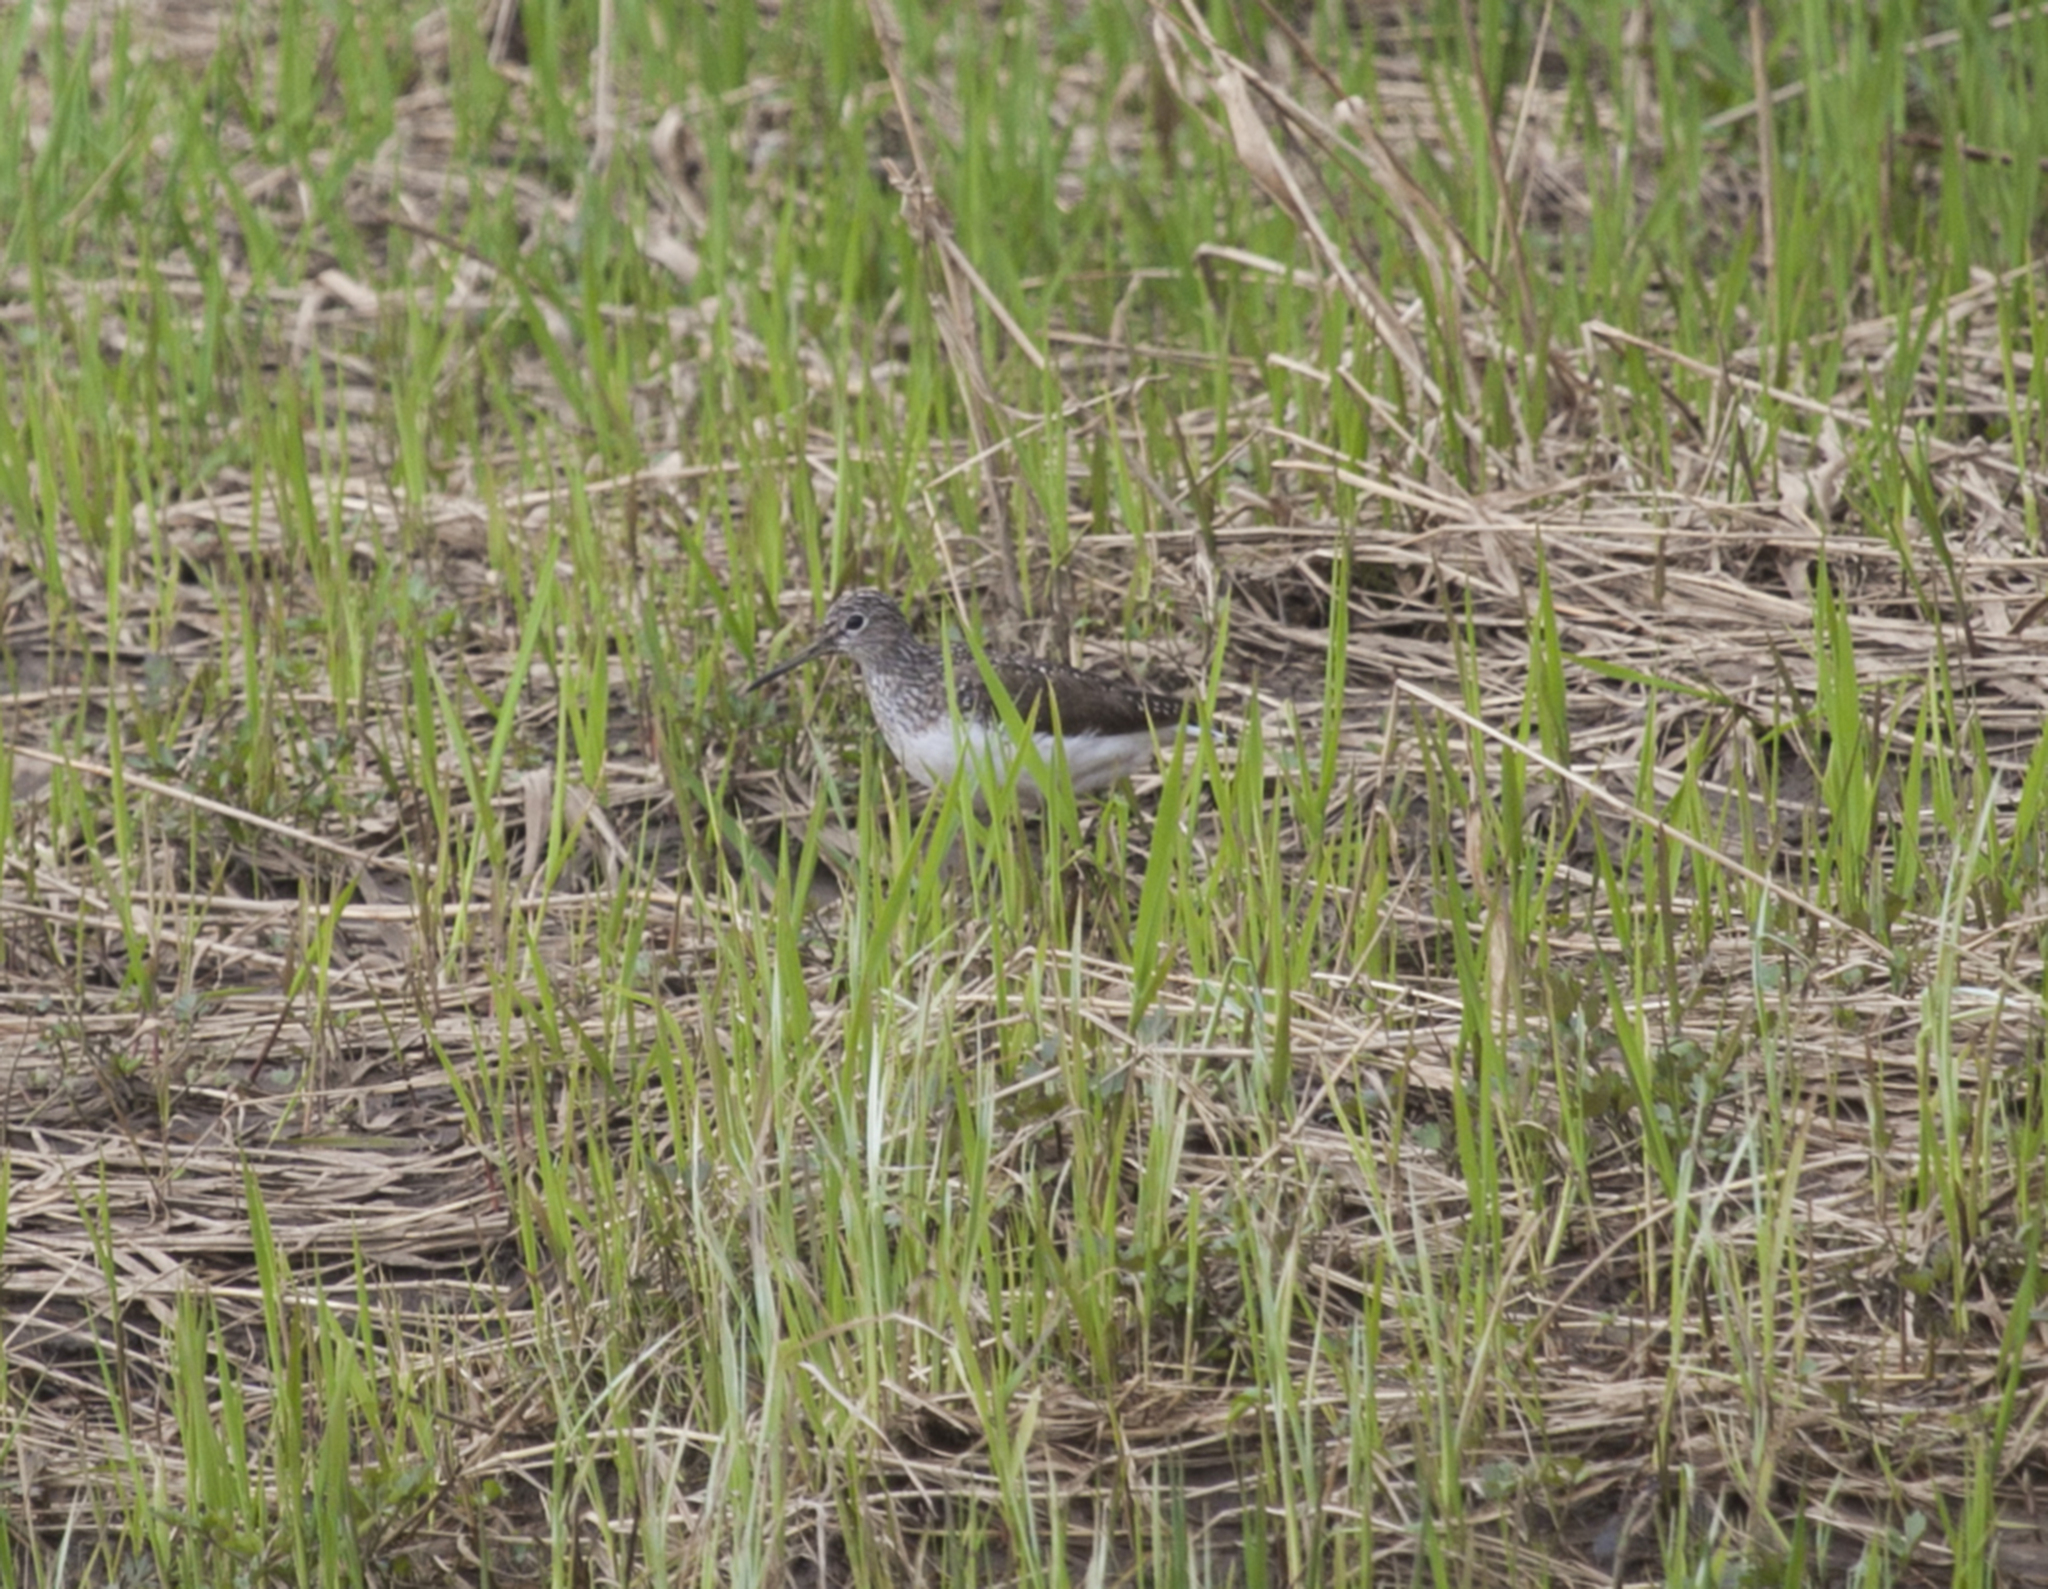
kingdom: Animalia
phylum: Chordata
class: Aves
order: Charadriiformes
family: Scolopacidae
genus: Tringa
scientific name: Tringa ochropus
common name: Green sandpiper
